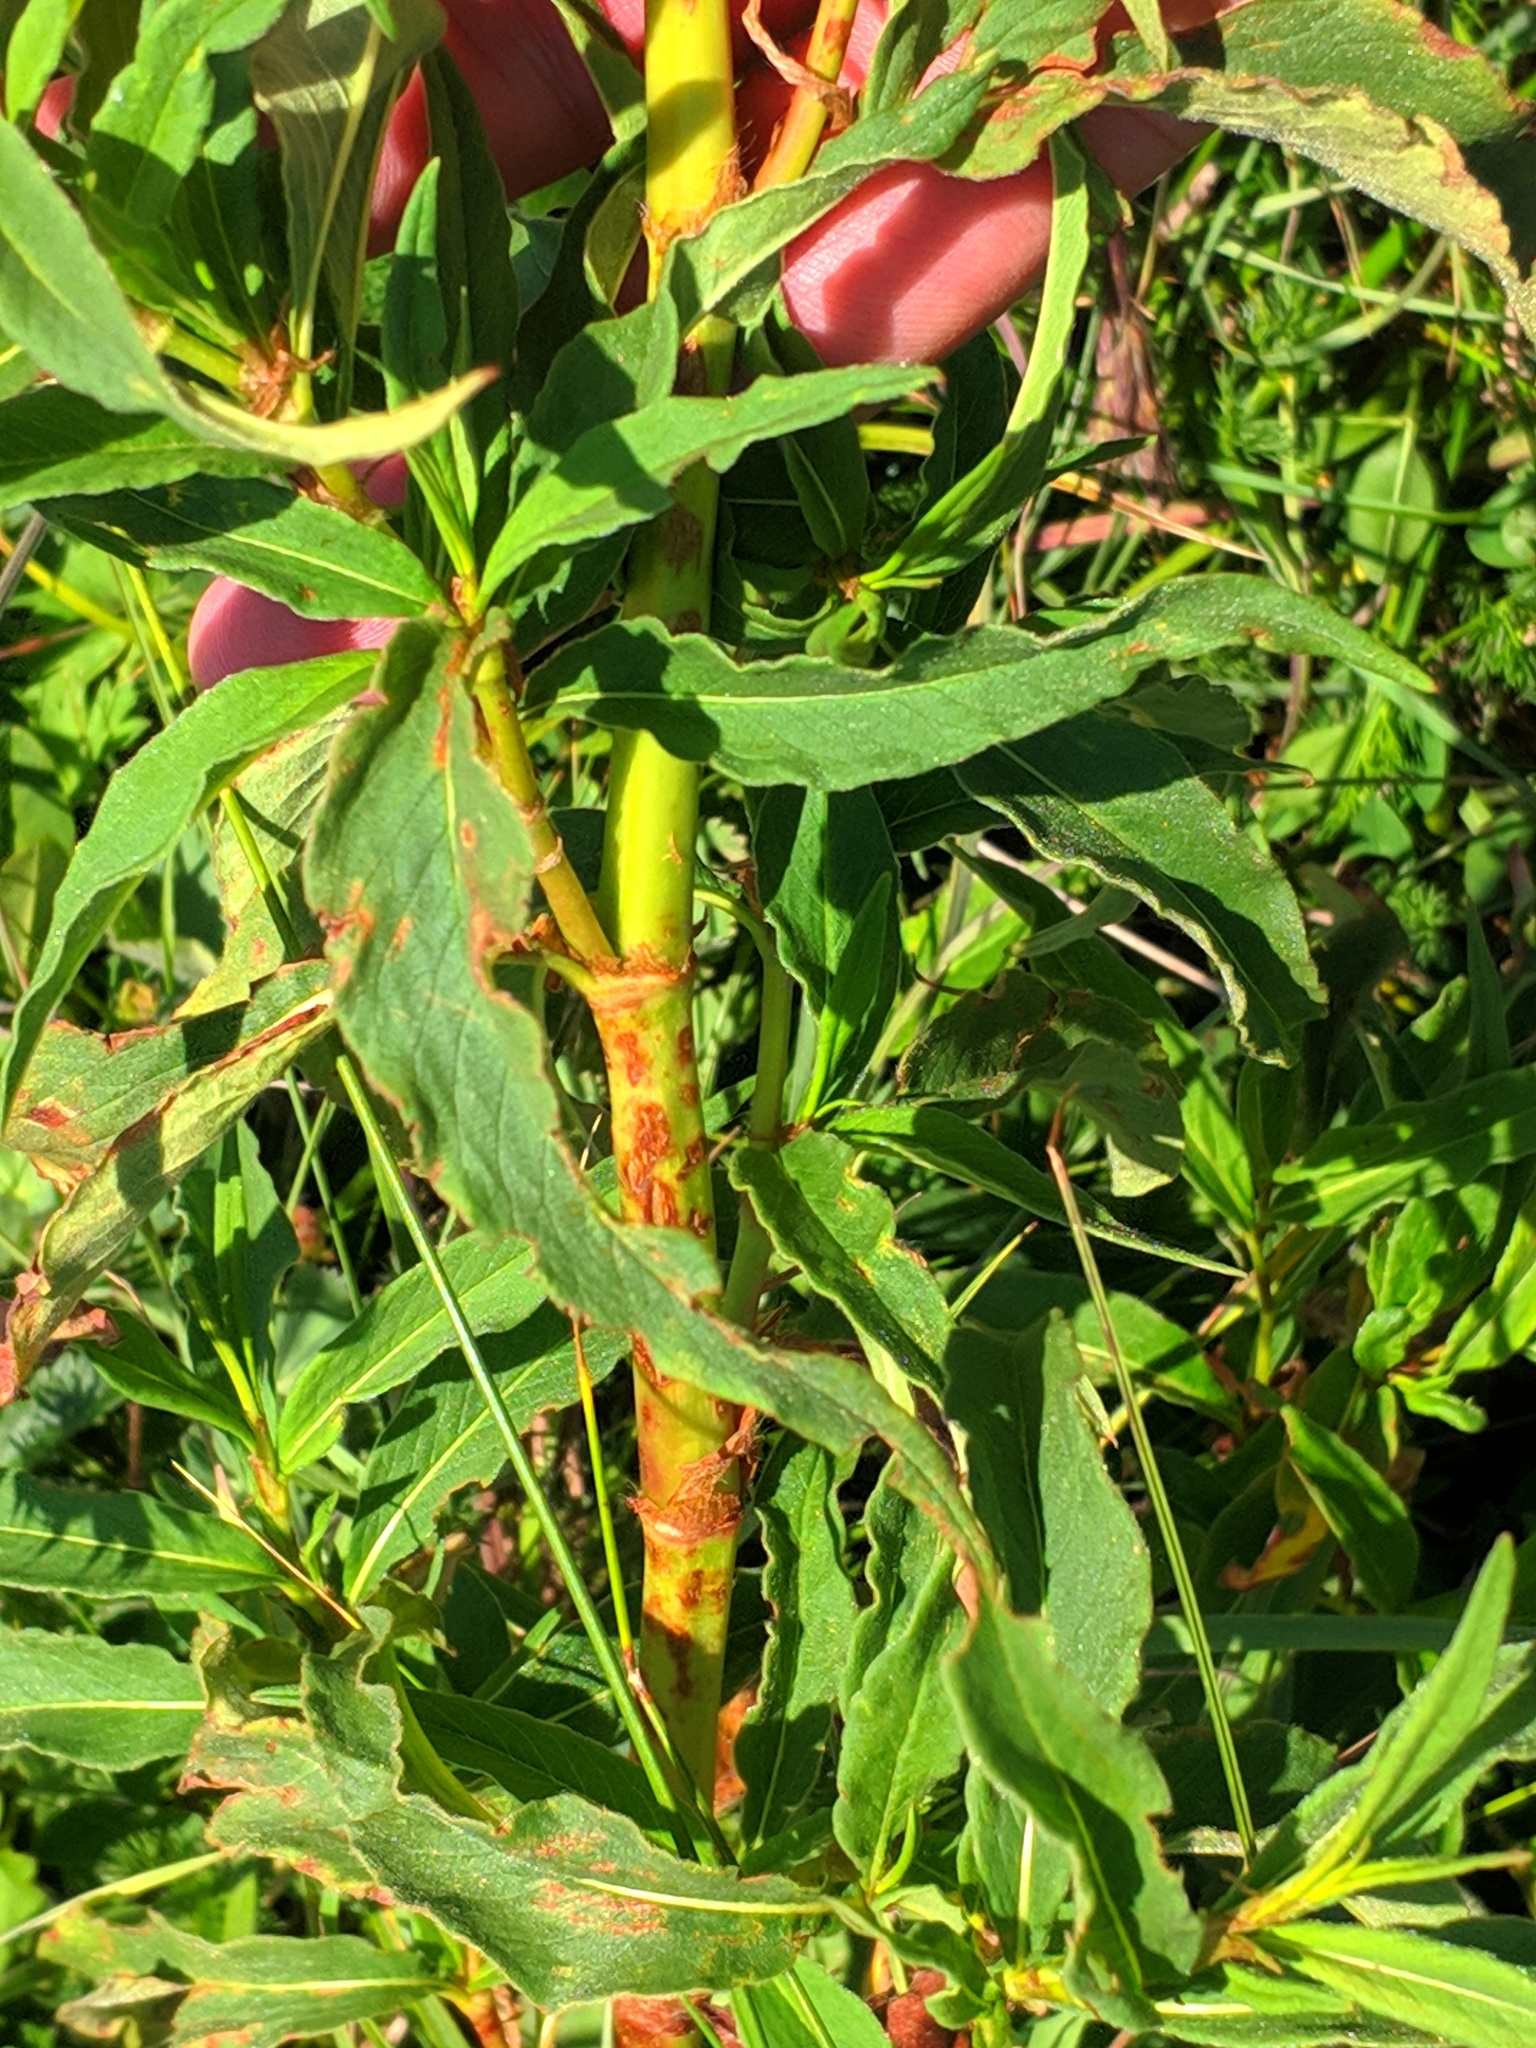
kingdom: Plantae
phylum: Tracheophyta
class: Magnoliopsida
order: Caryophyllales
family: Polygonaceae
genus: Koenigia
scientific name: Koenigia alpina
